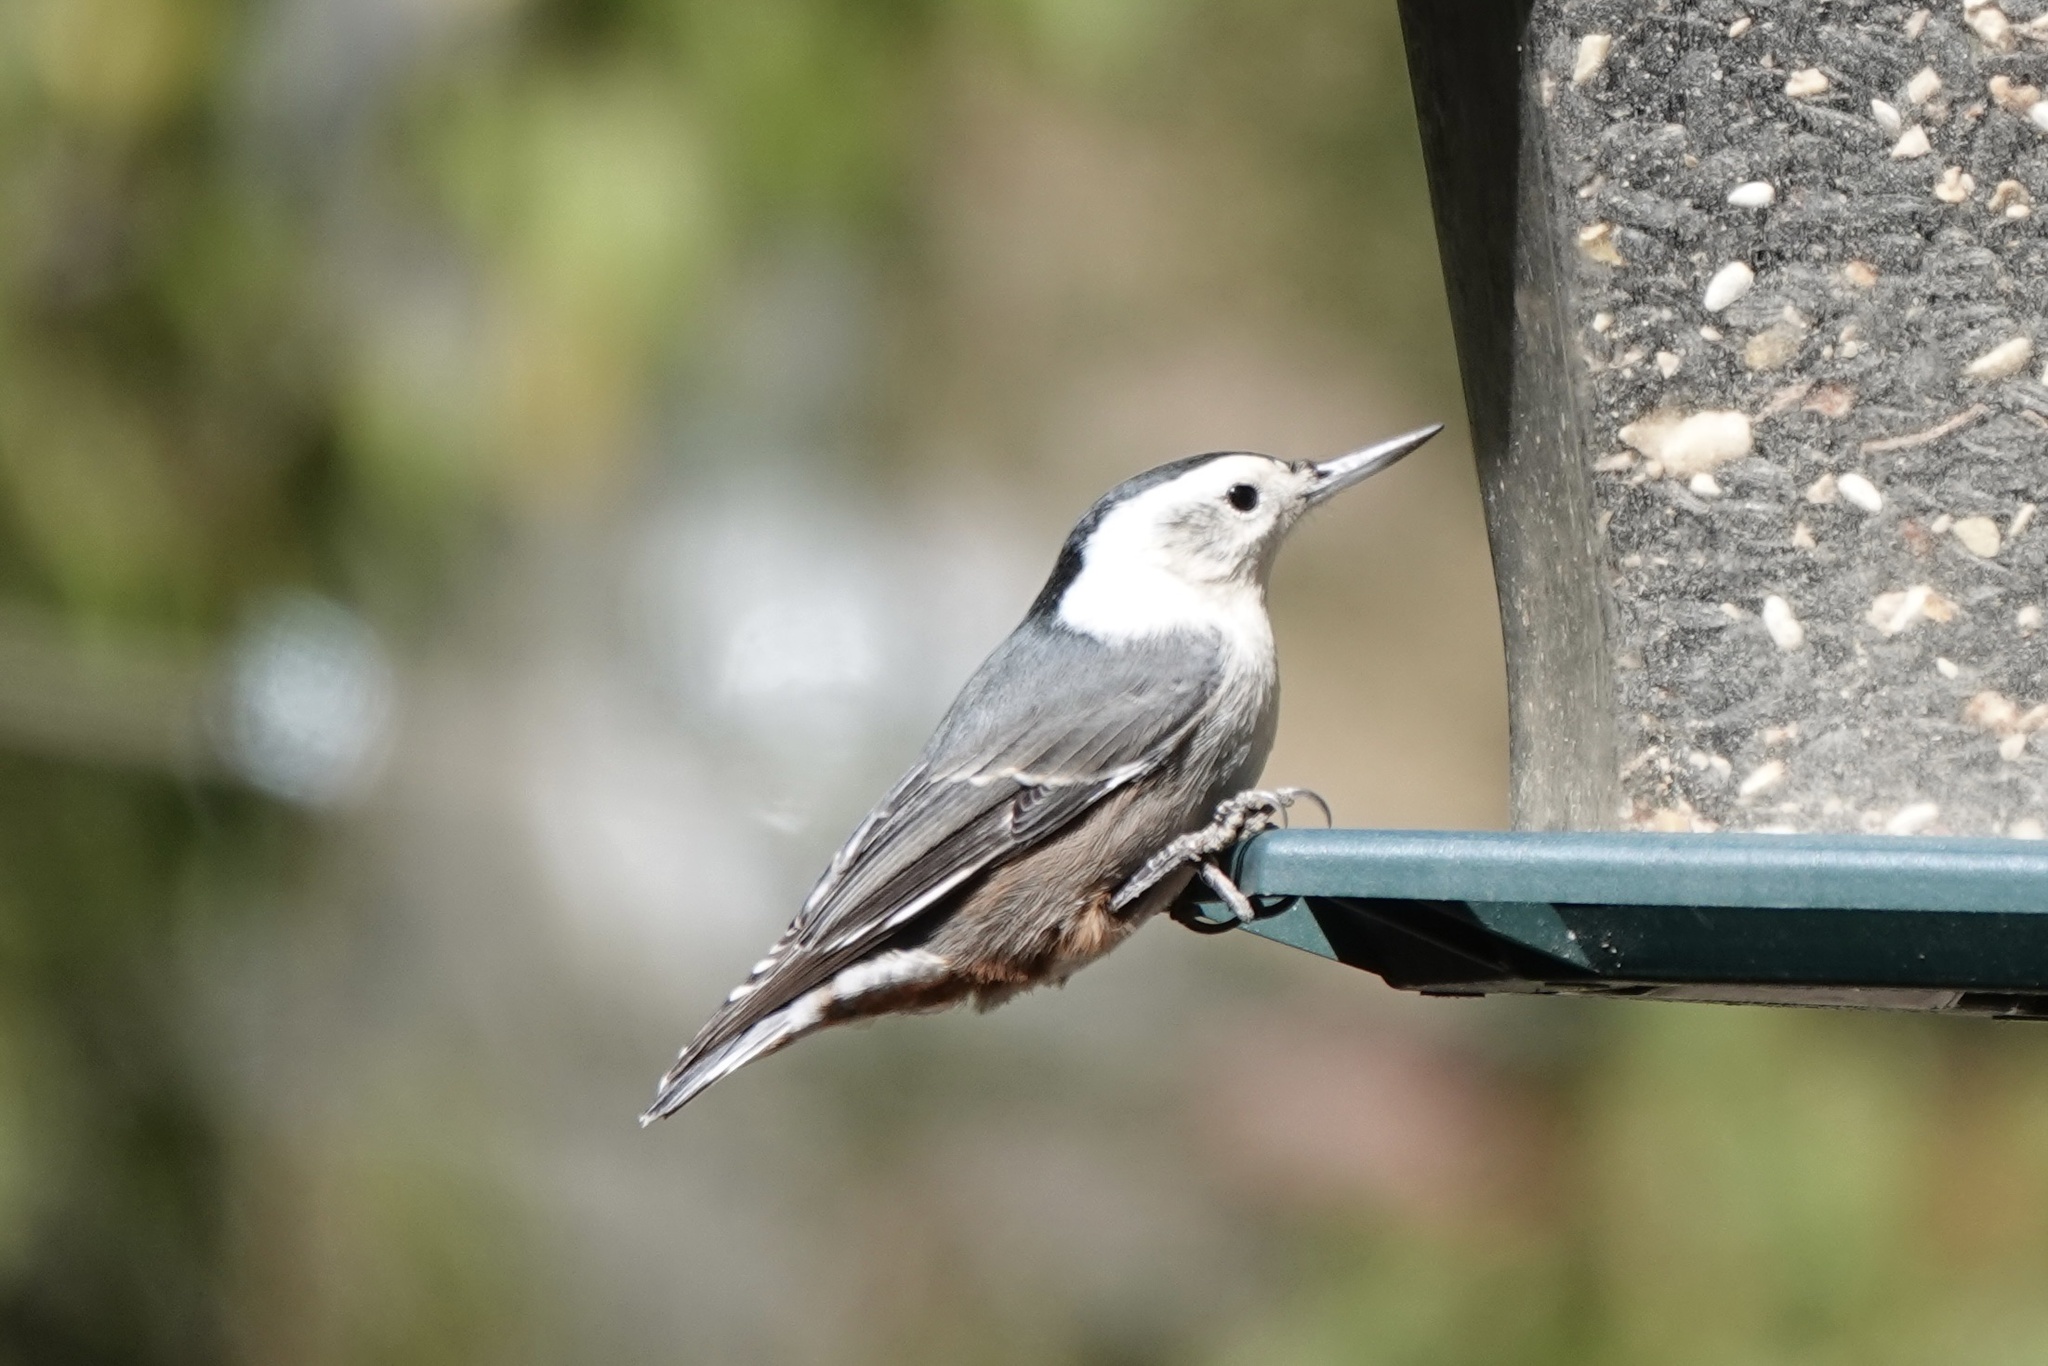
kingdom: Animalia
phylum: Chordata
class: Aves
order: Passeriformes
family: Sittidae
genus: Sitta
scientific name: Sitta carolinensis
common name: White-breasted nuthatch
